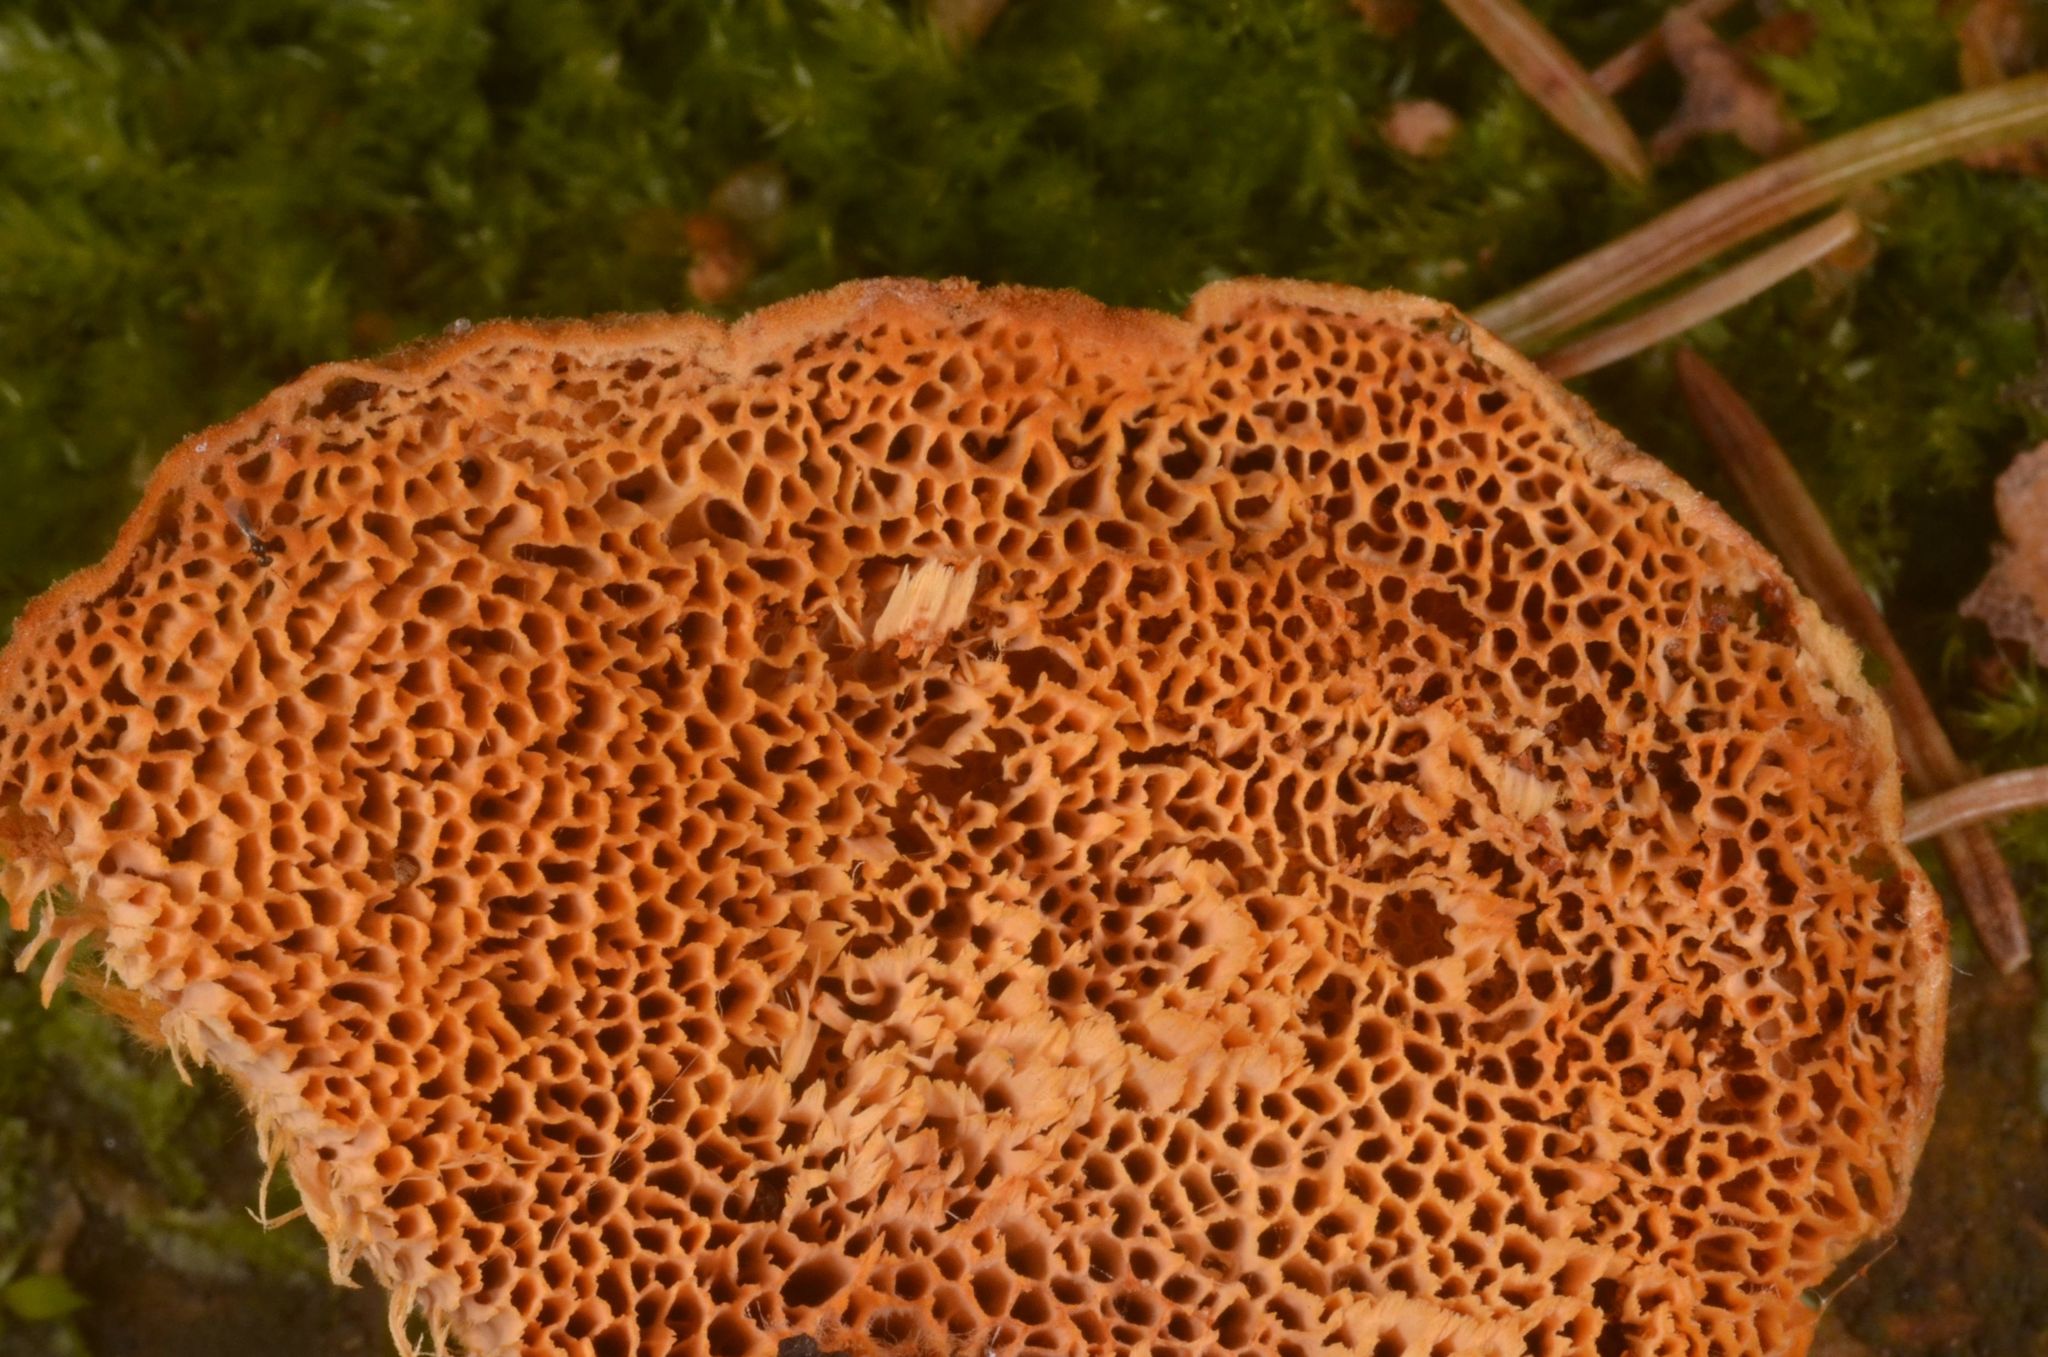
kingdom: Fungi
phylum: Basidiomycota
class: Agaricomycetes
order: Polyporales
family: Pycnoporellaceae
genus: Pycnoporellus
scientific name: Pycnoporellus fulgens
